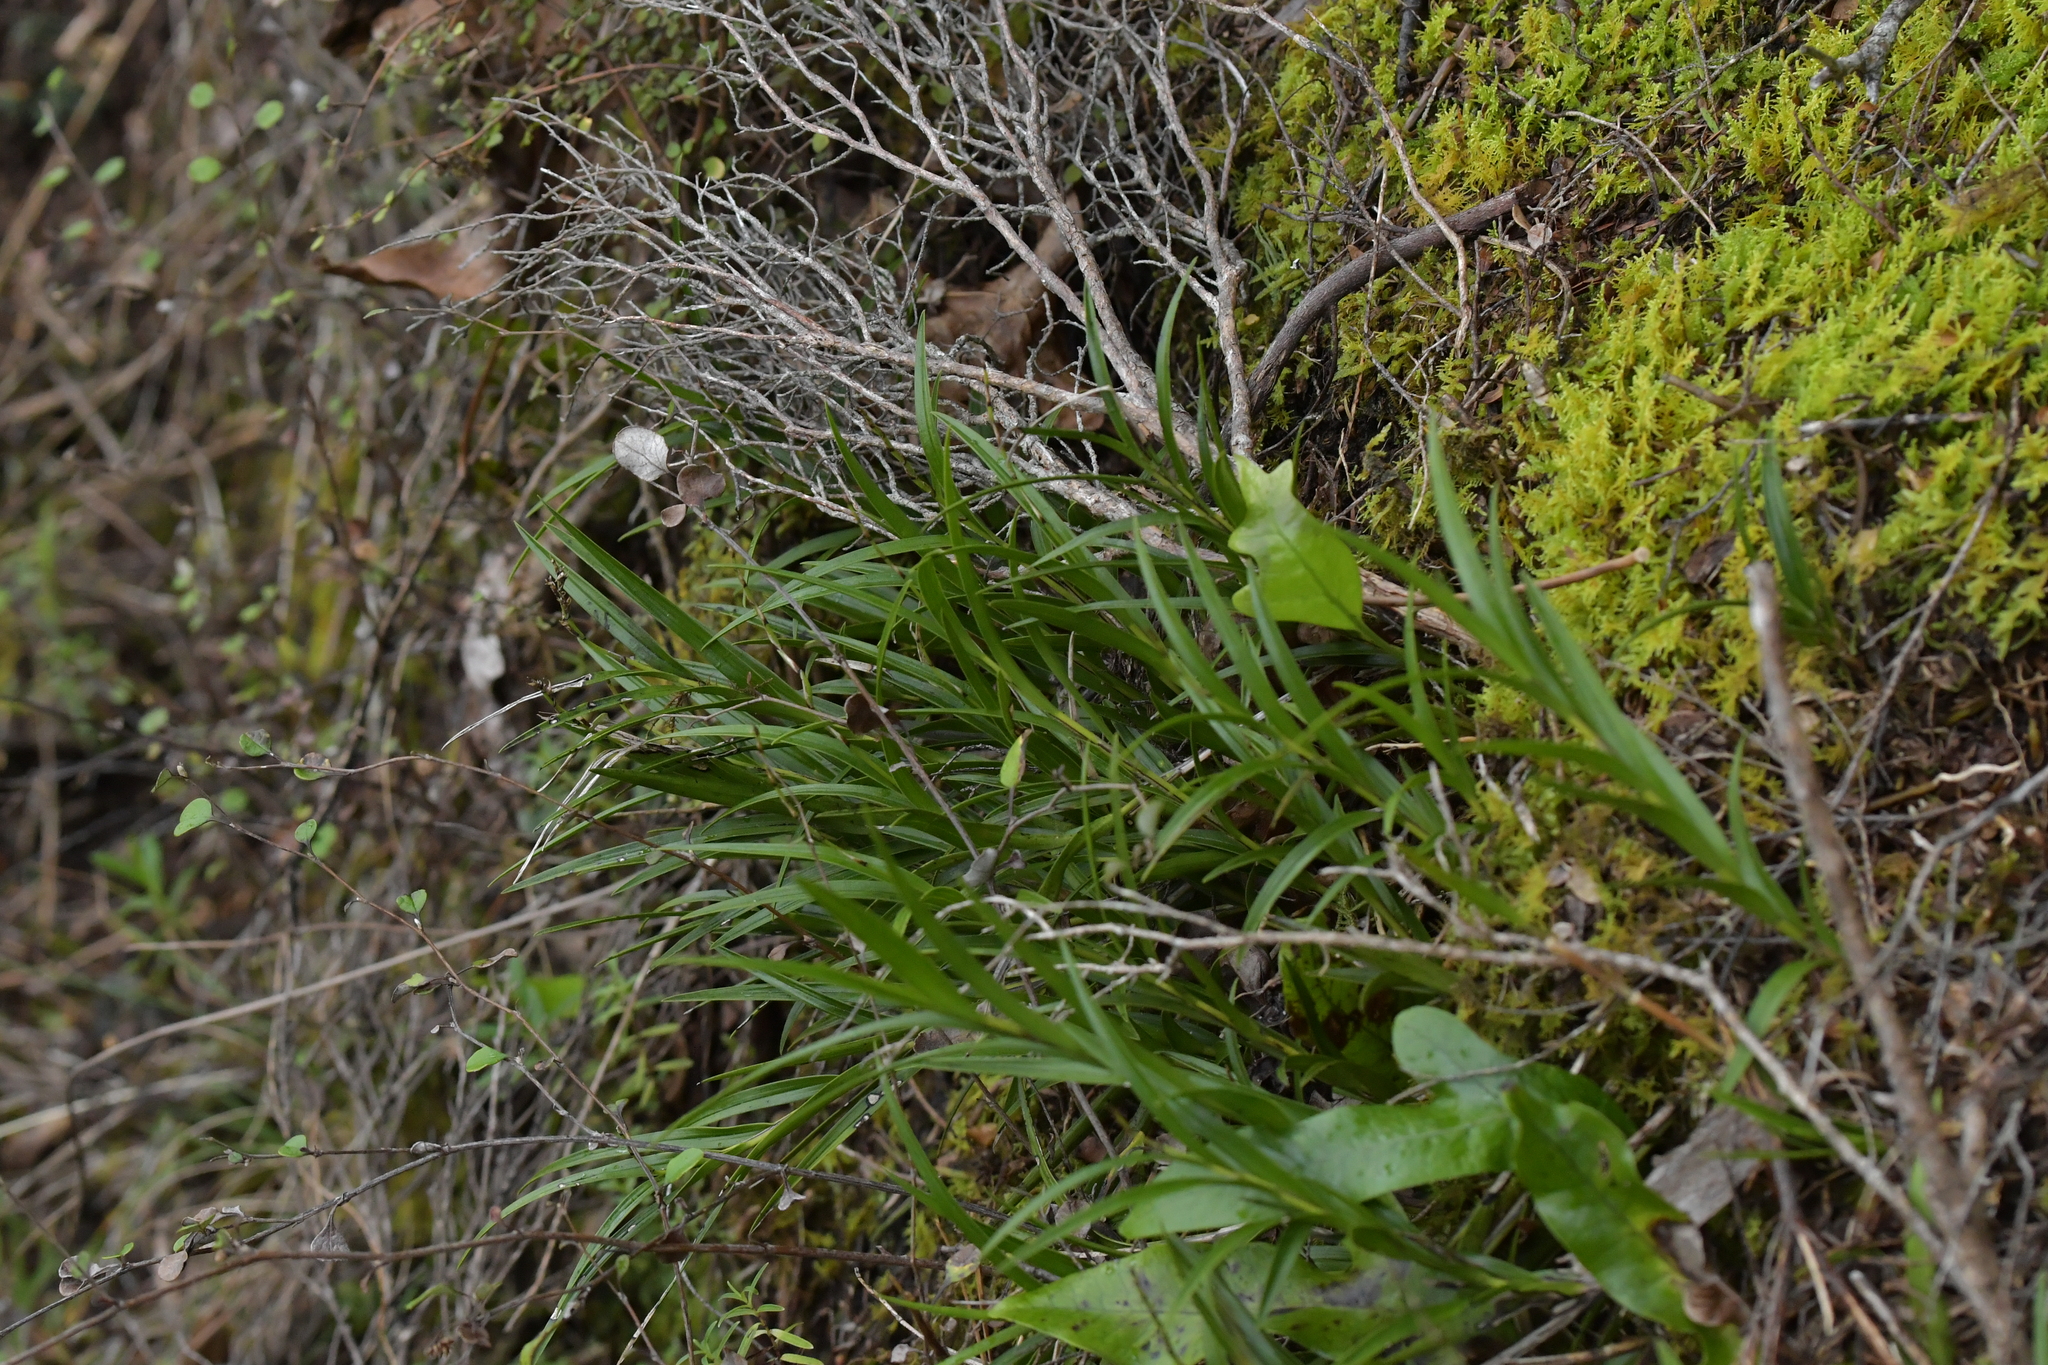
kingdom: Plantae
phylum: Tracheophyta
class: Liliopsida
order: Asparagales
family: Orchidaceae
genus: Earina
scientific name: Earina autumnalis
